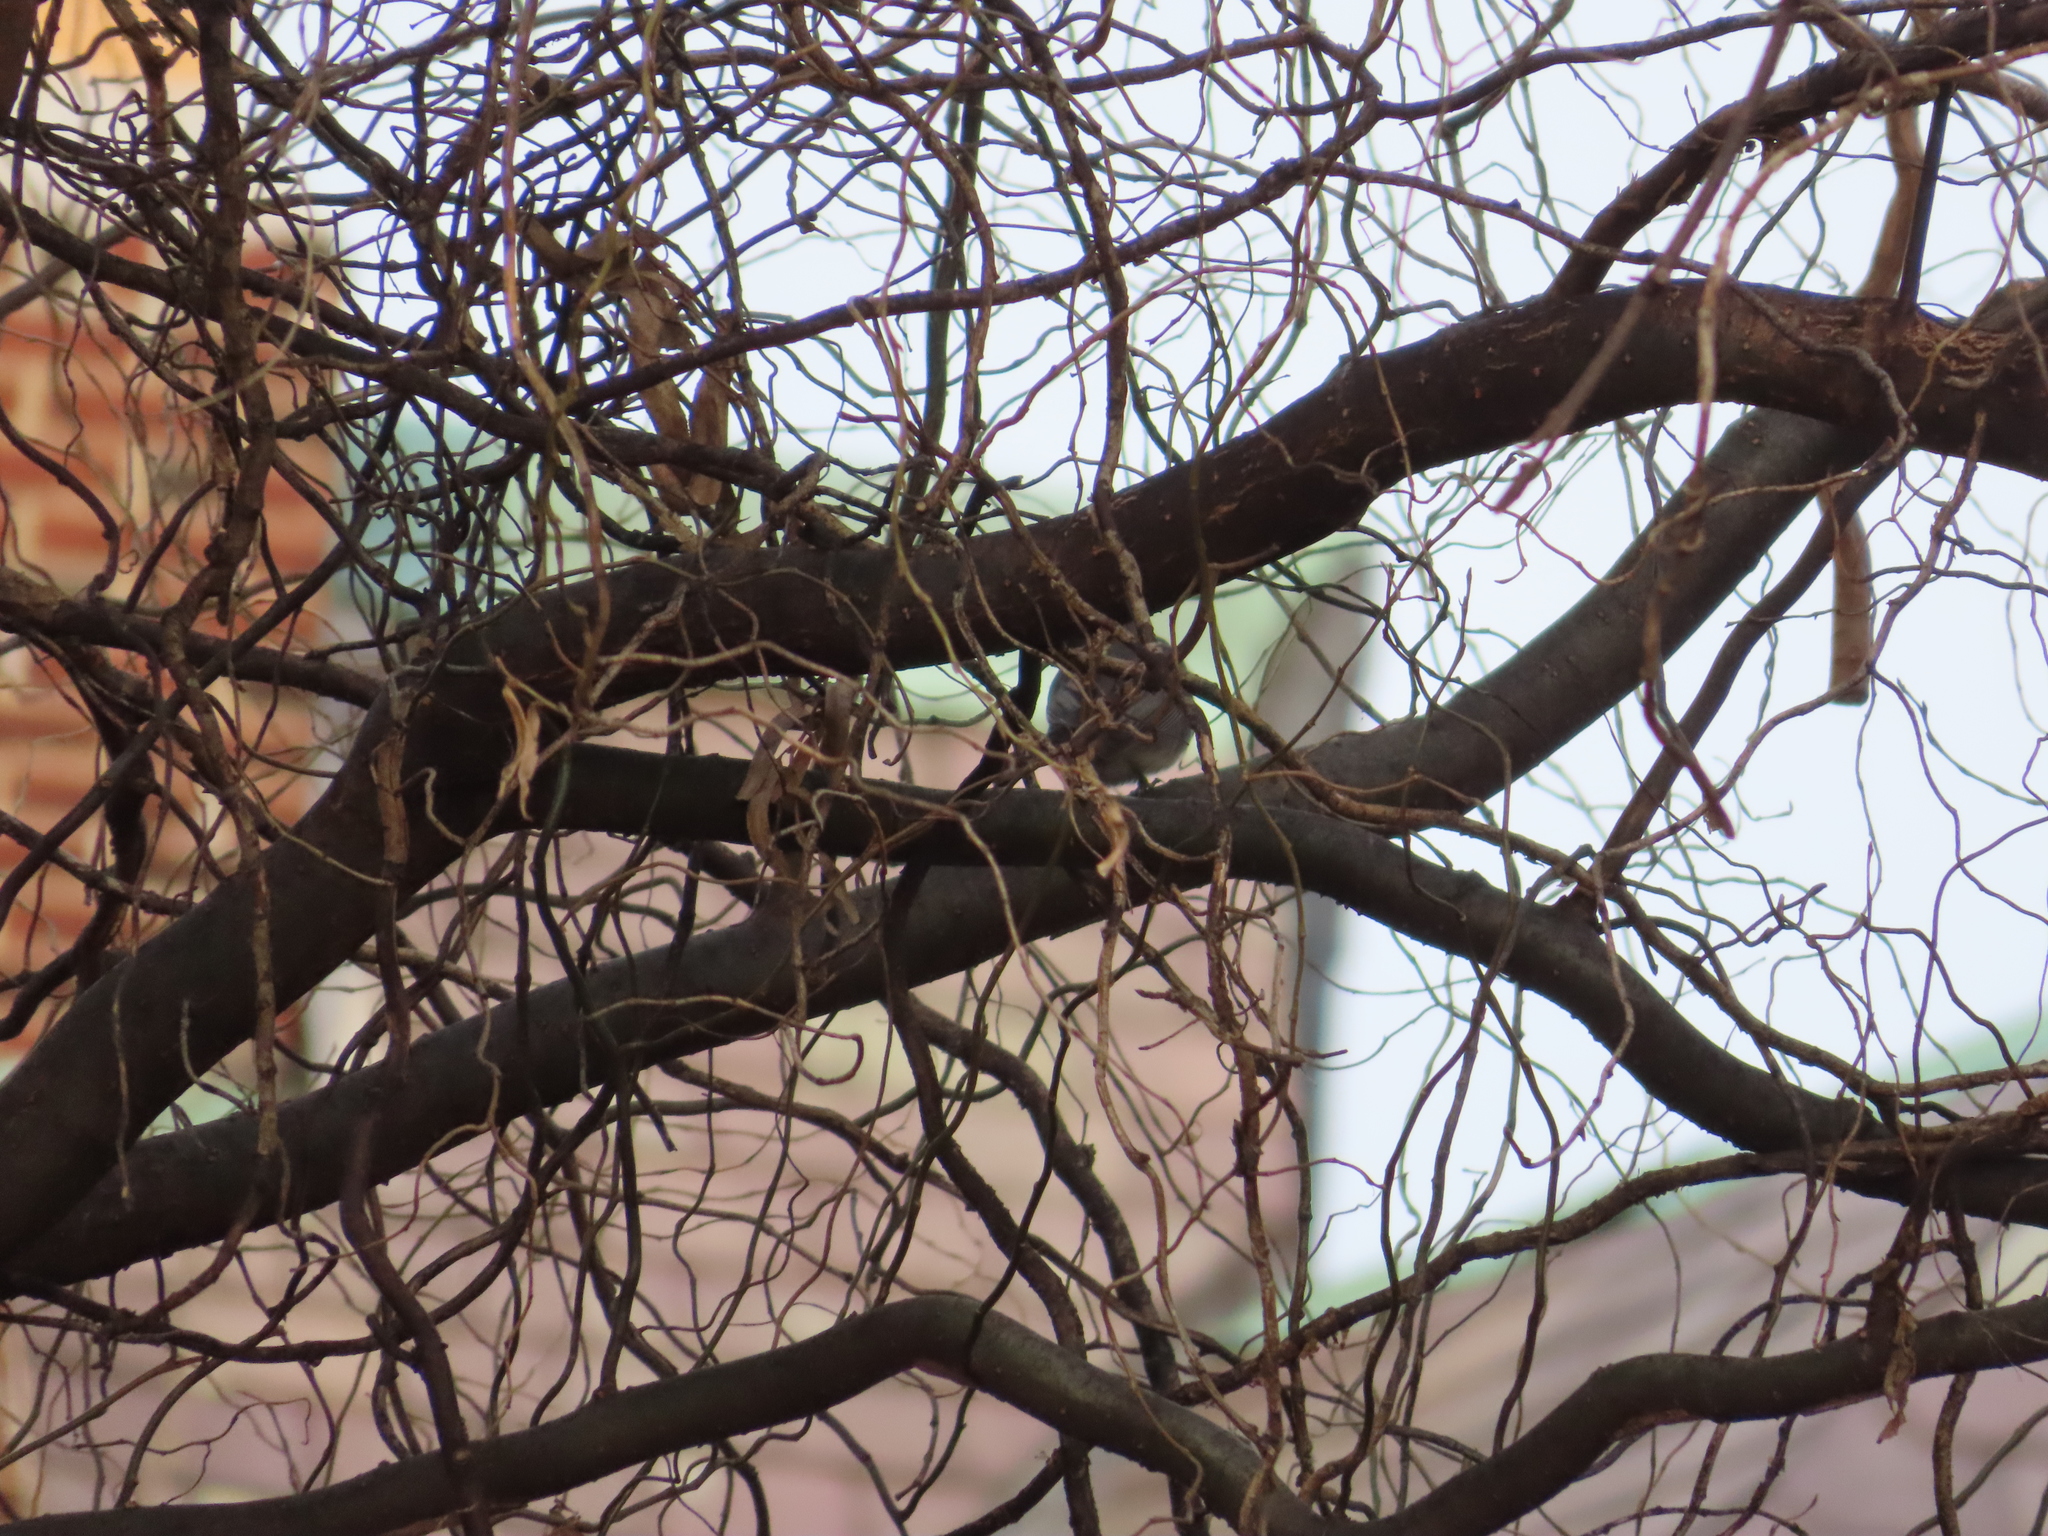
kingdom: Animalia
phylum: Chordata
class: Mammalia
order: Rodentia
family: Sciuridae
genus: Sciurus
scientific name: Sciurus carolinensis
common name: Eastern gray squirrel
